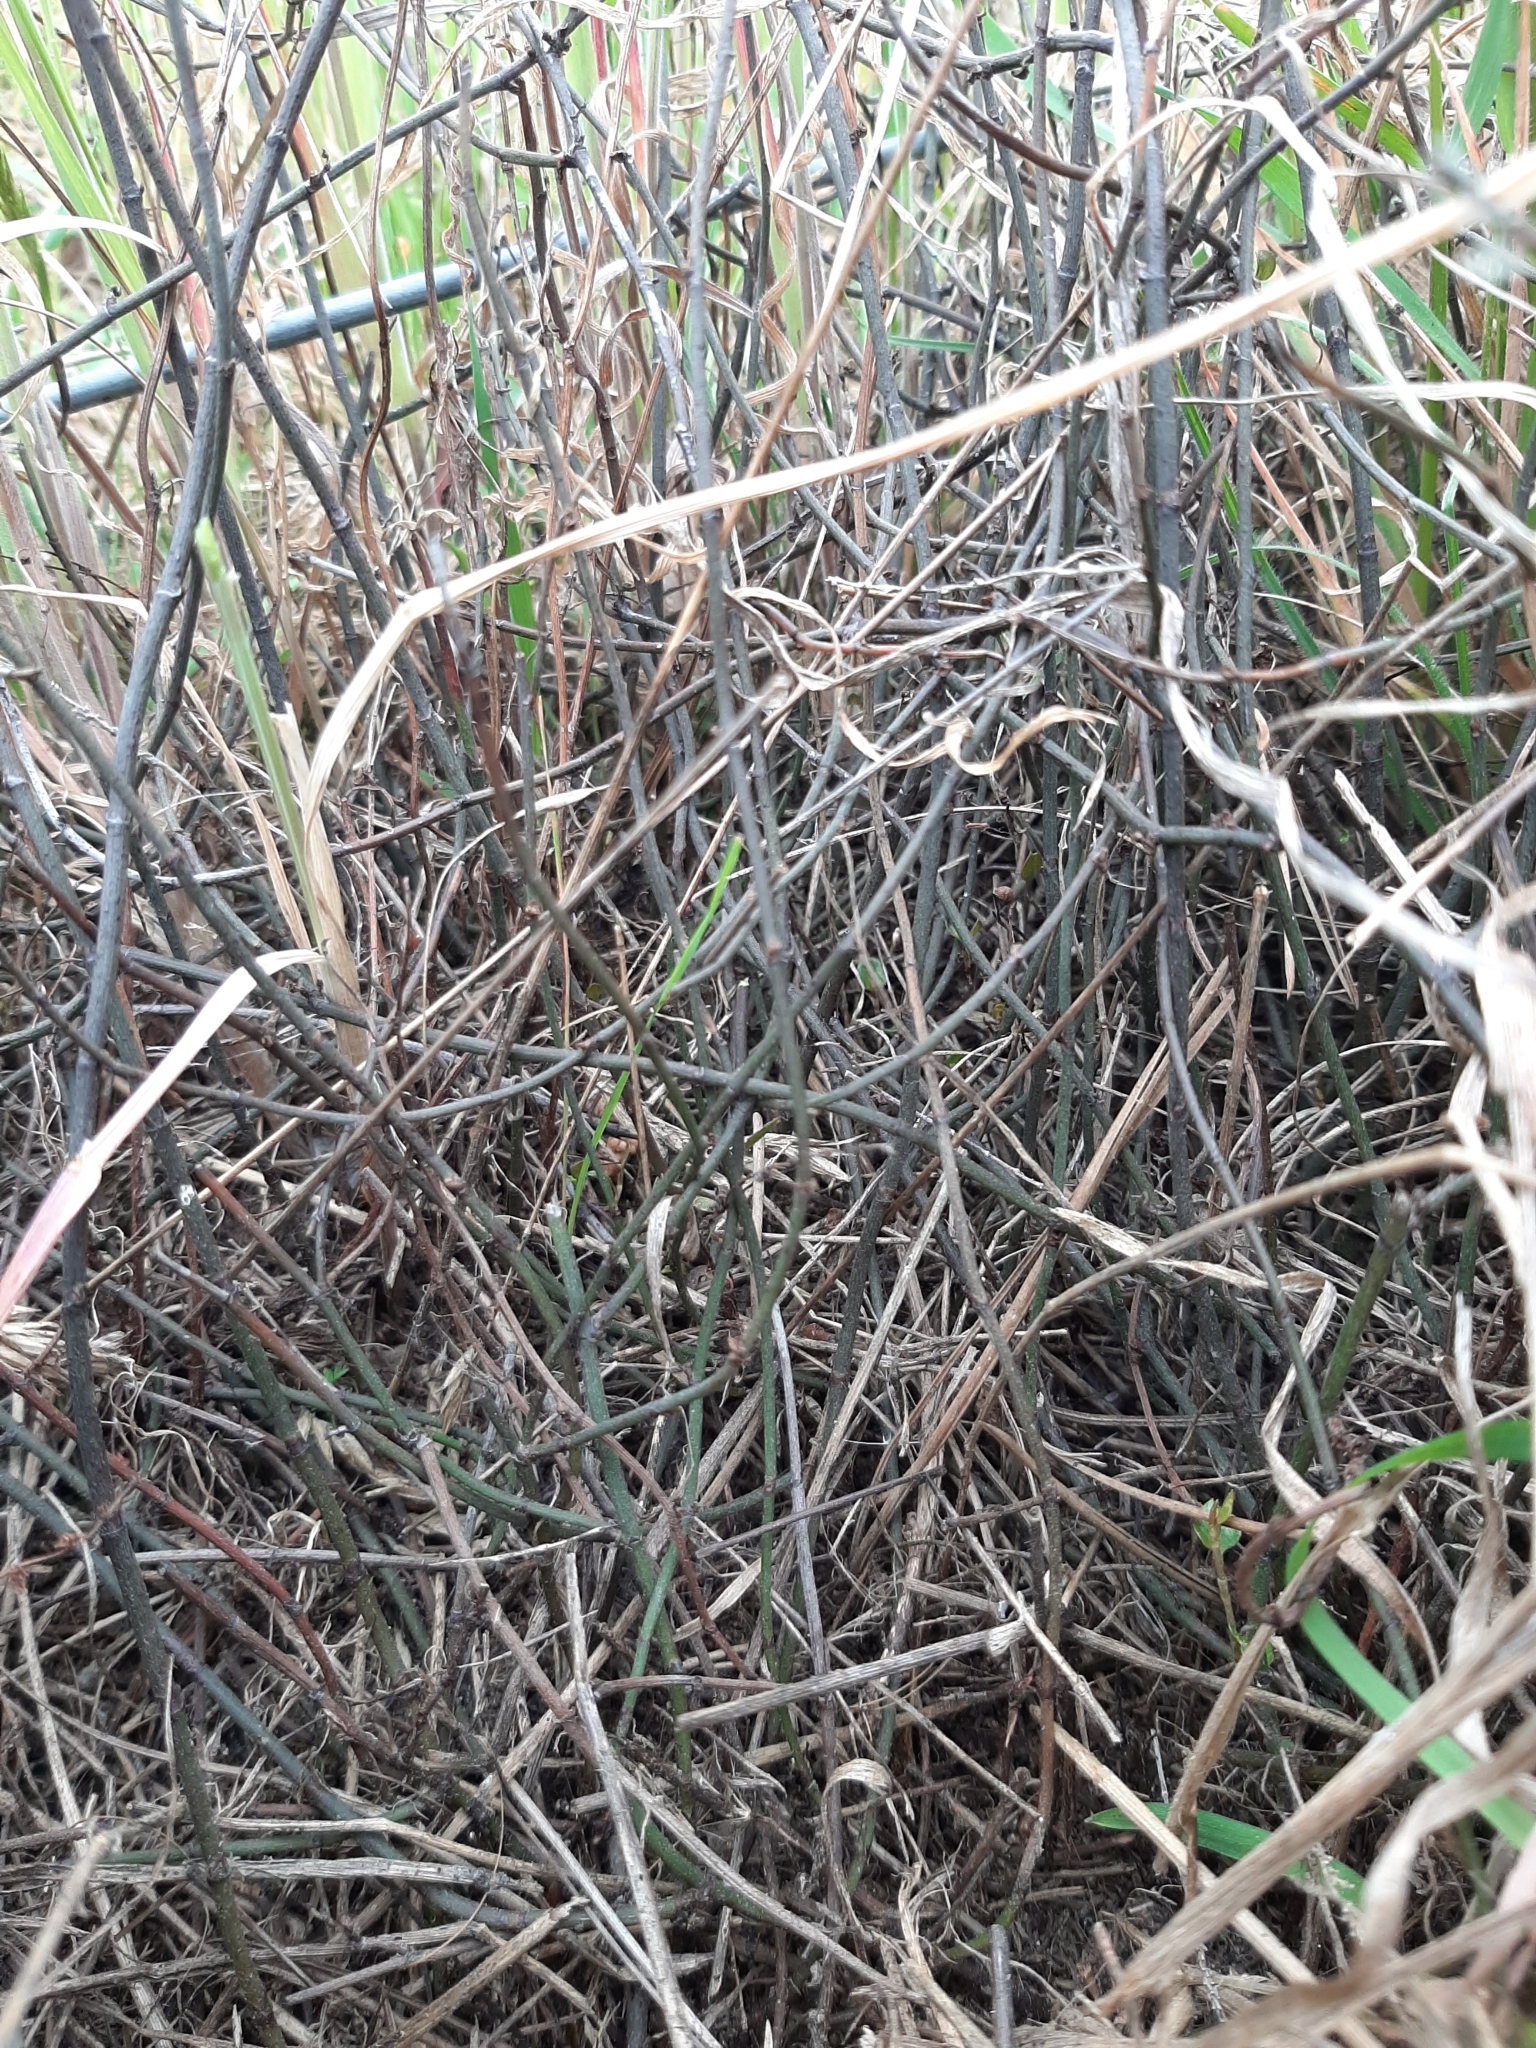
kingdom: Plantae
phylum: Tracheophyta
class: Magnoliopsida
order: Caryophyllales
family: Polygonaceae
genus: Muehlenbeckia
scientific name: Muehlenbeckia ephedroides
